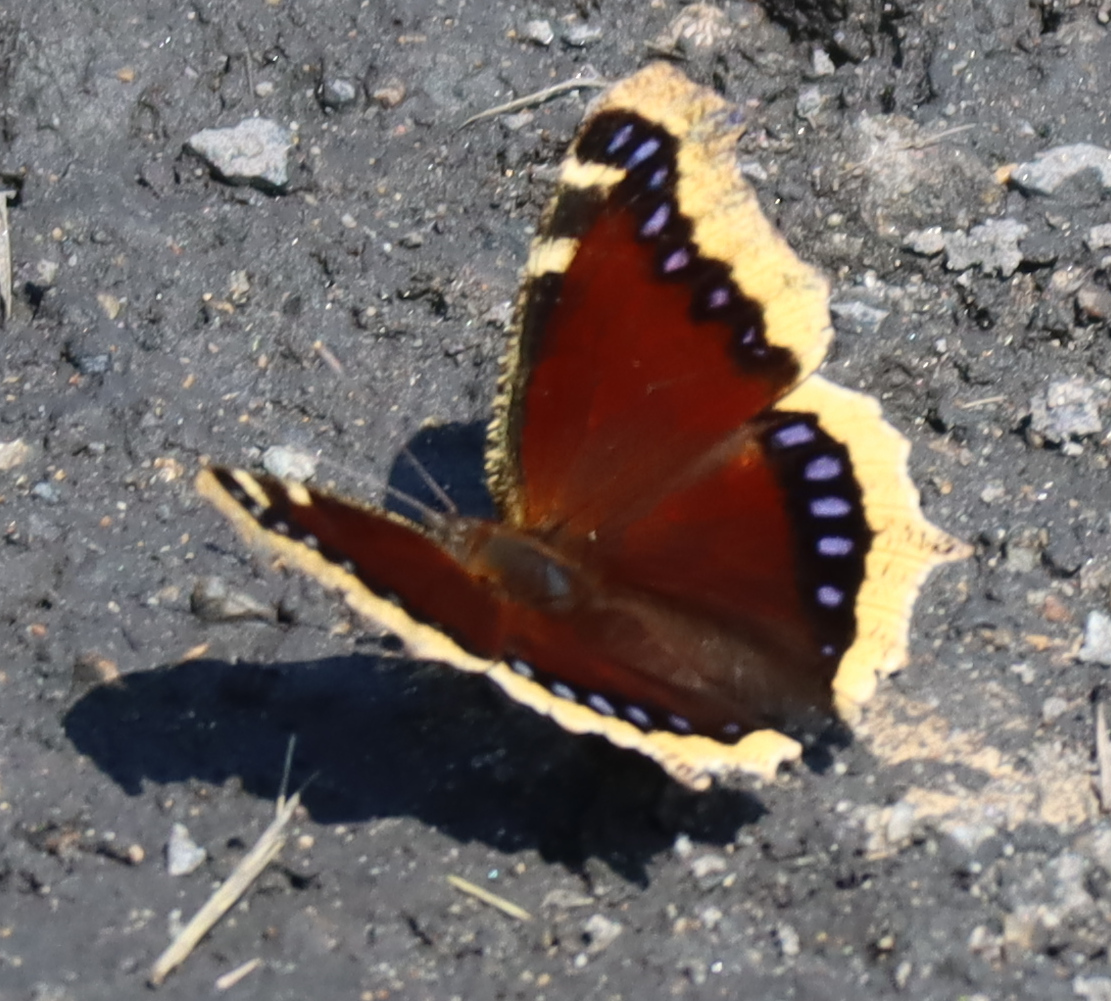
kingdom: Animalia
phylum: Arthropoda
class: Insecta
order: Lepidoptera
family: Nymphalidae
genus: Nymphalis
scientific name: Nymphalis antiopa
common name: Camberwell beauty
